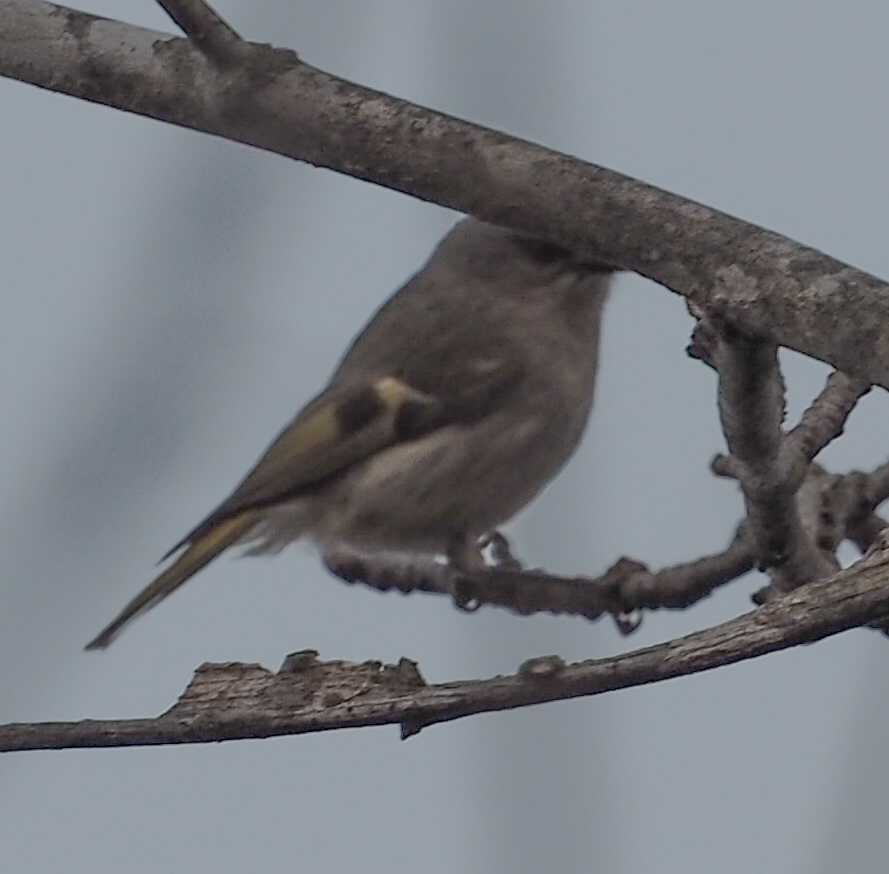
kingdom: Animalia
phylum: Chordata
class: Aves
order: Passeriformes
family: Regulidae
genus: Regulus
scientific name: Regulus satrapa
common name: Golden-crowned kinglet
